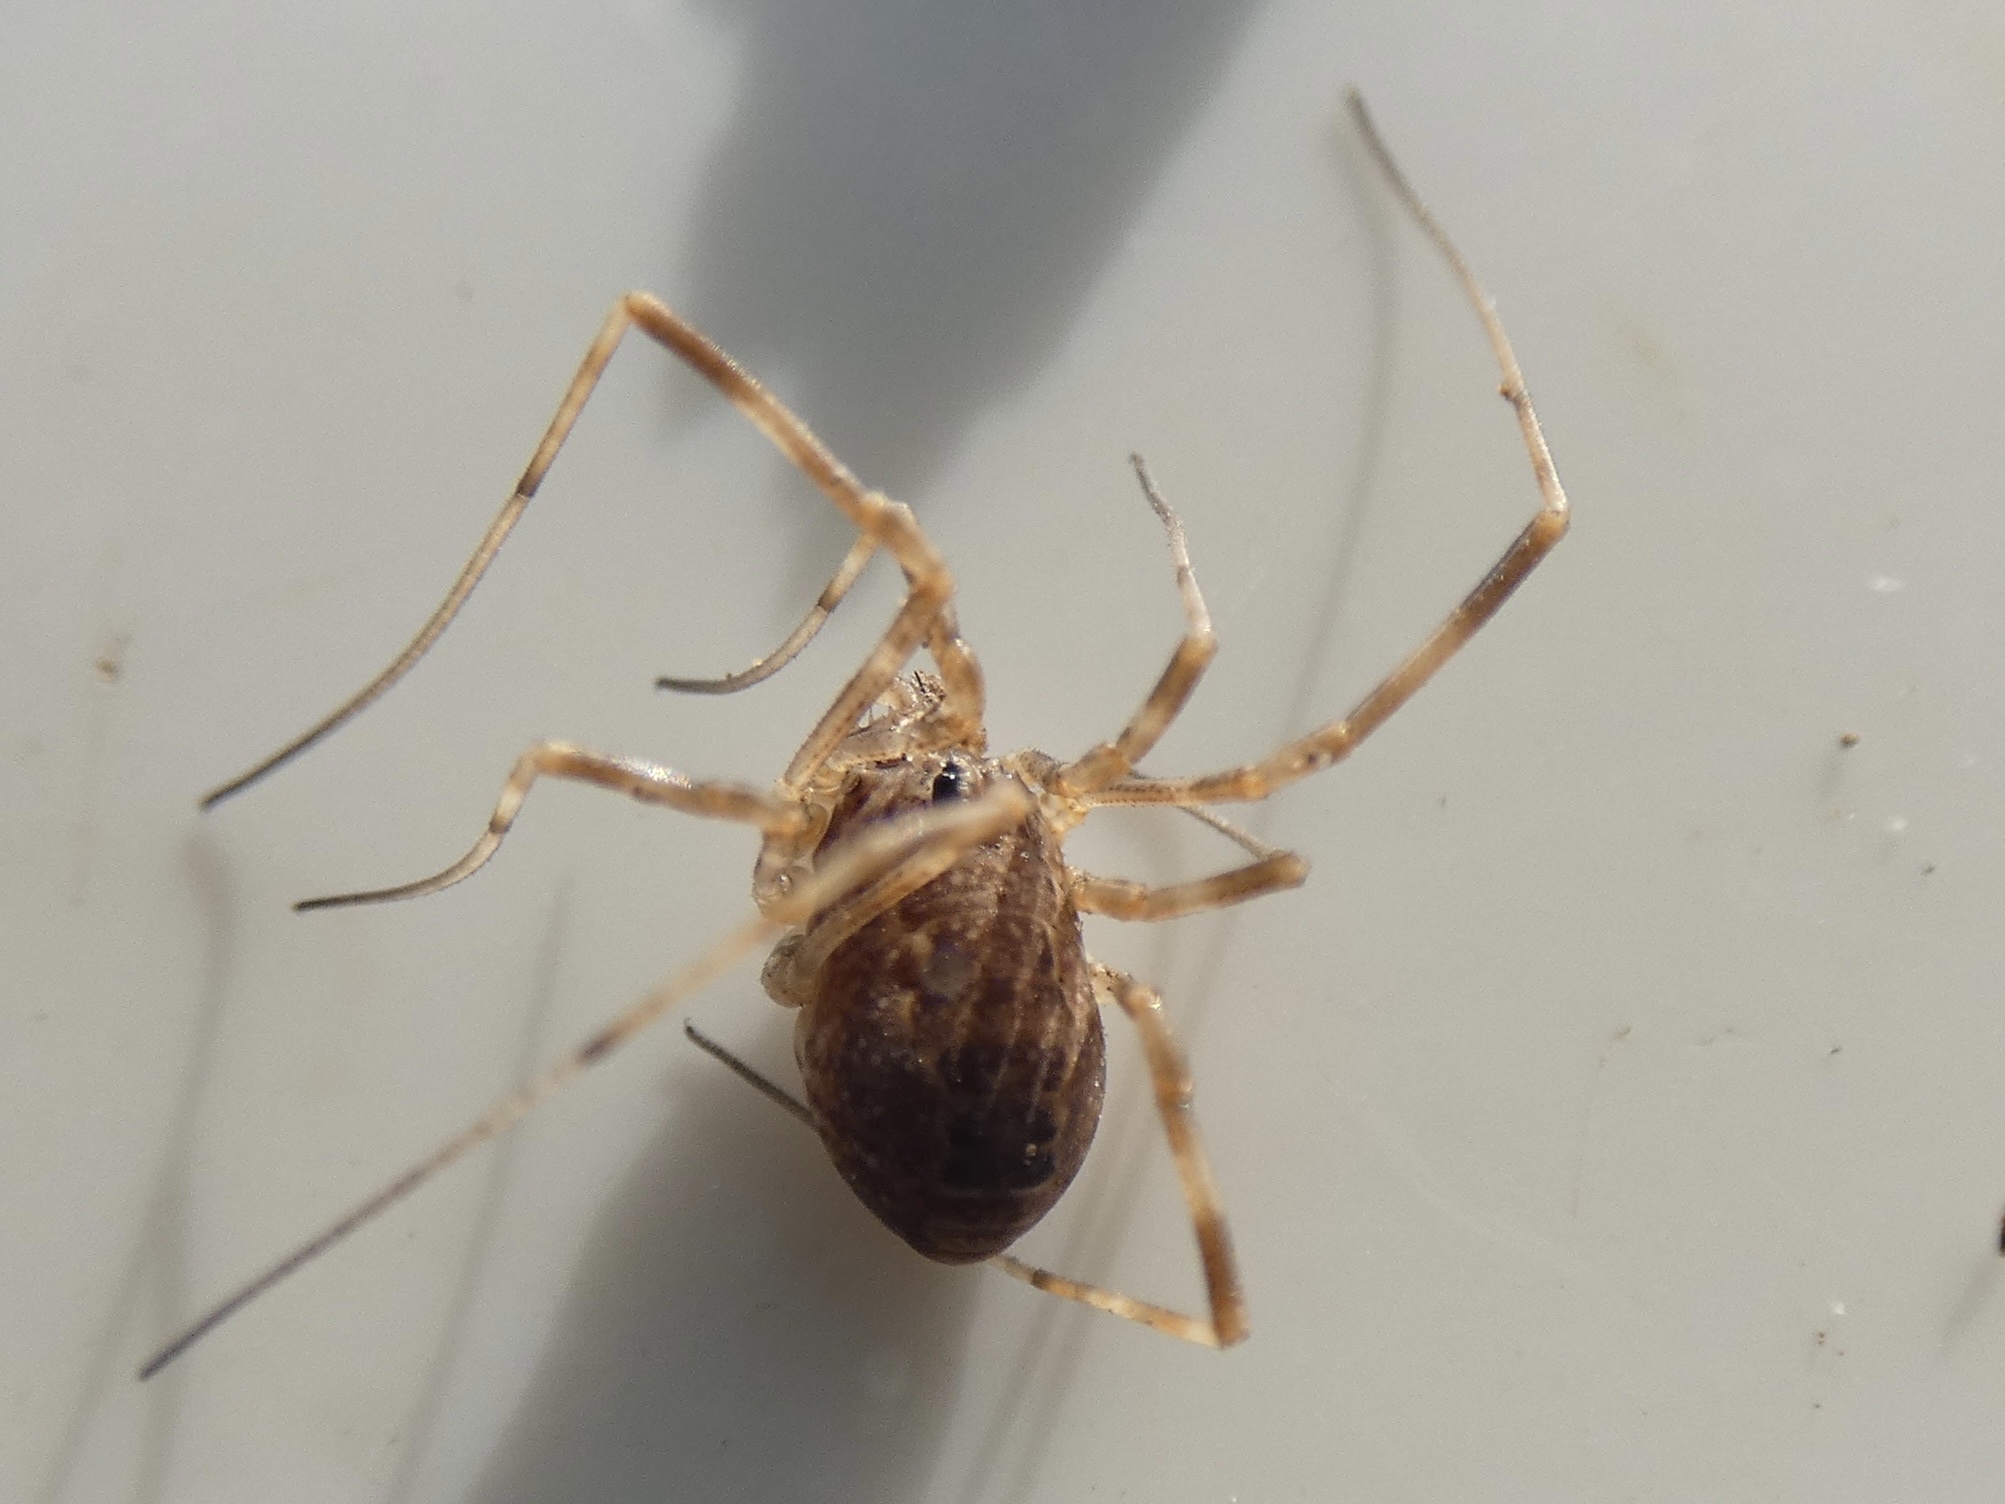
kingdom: Animalia
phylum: Arthropoda
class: Arachnida
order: Opiliones
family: Phalangiidae
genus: Rilaena
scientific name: Rilaena triangularis
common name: Spring harvestman
